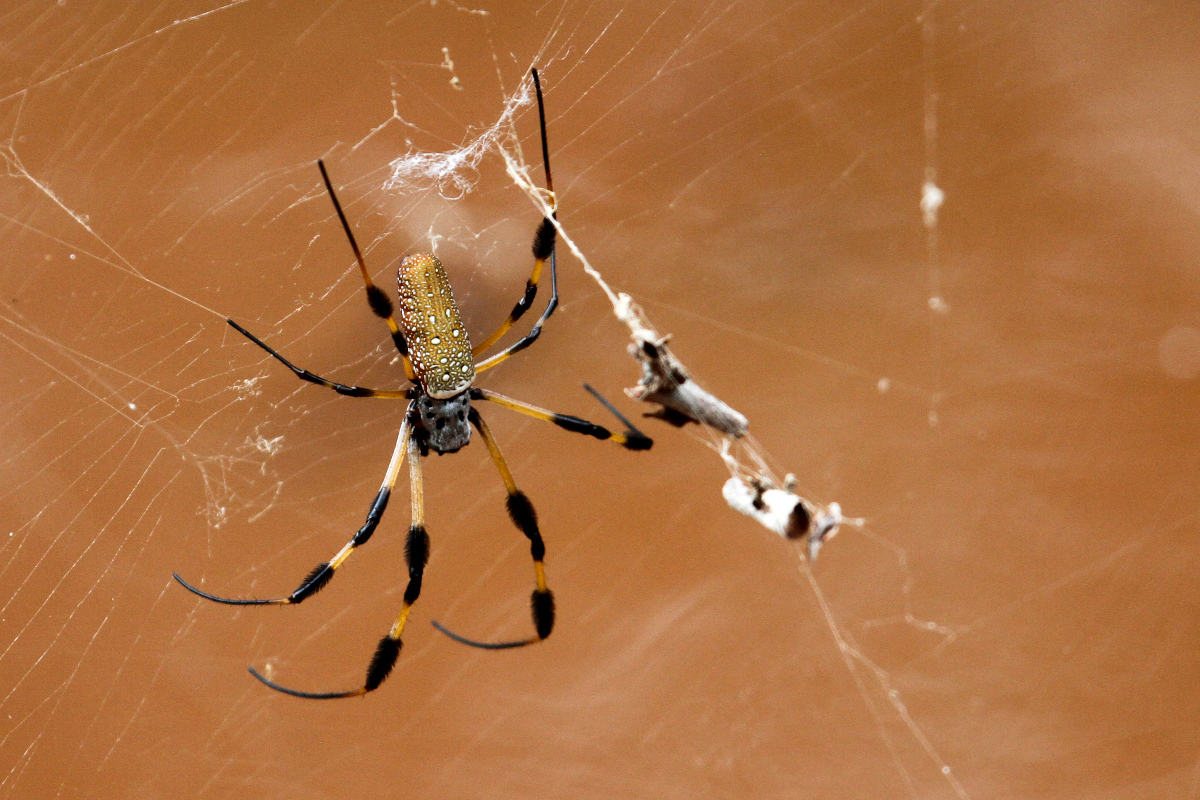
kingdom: Animalia
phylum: Arthropoda
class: Arachnida
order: Araneae
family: Araneidae
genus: Trichonephila
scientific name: Trichonephila clavipes
